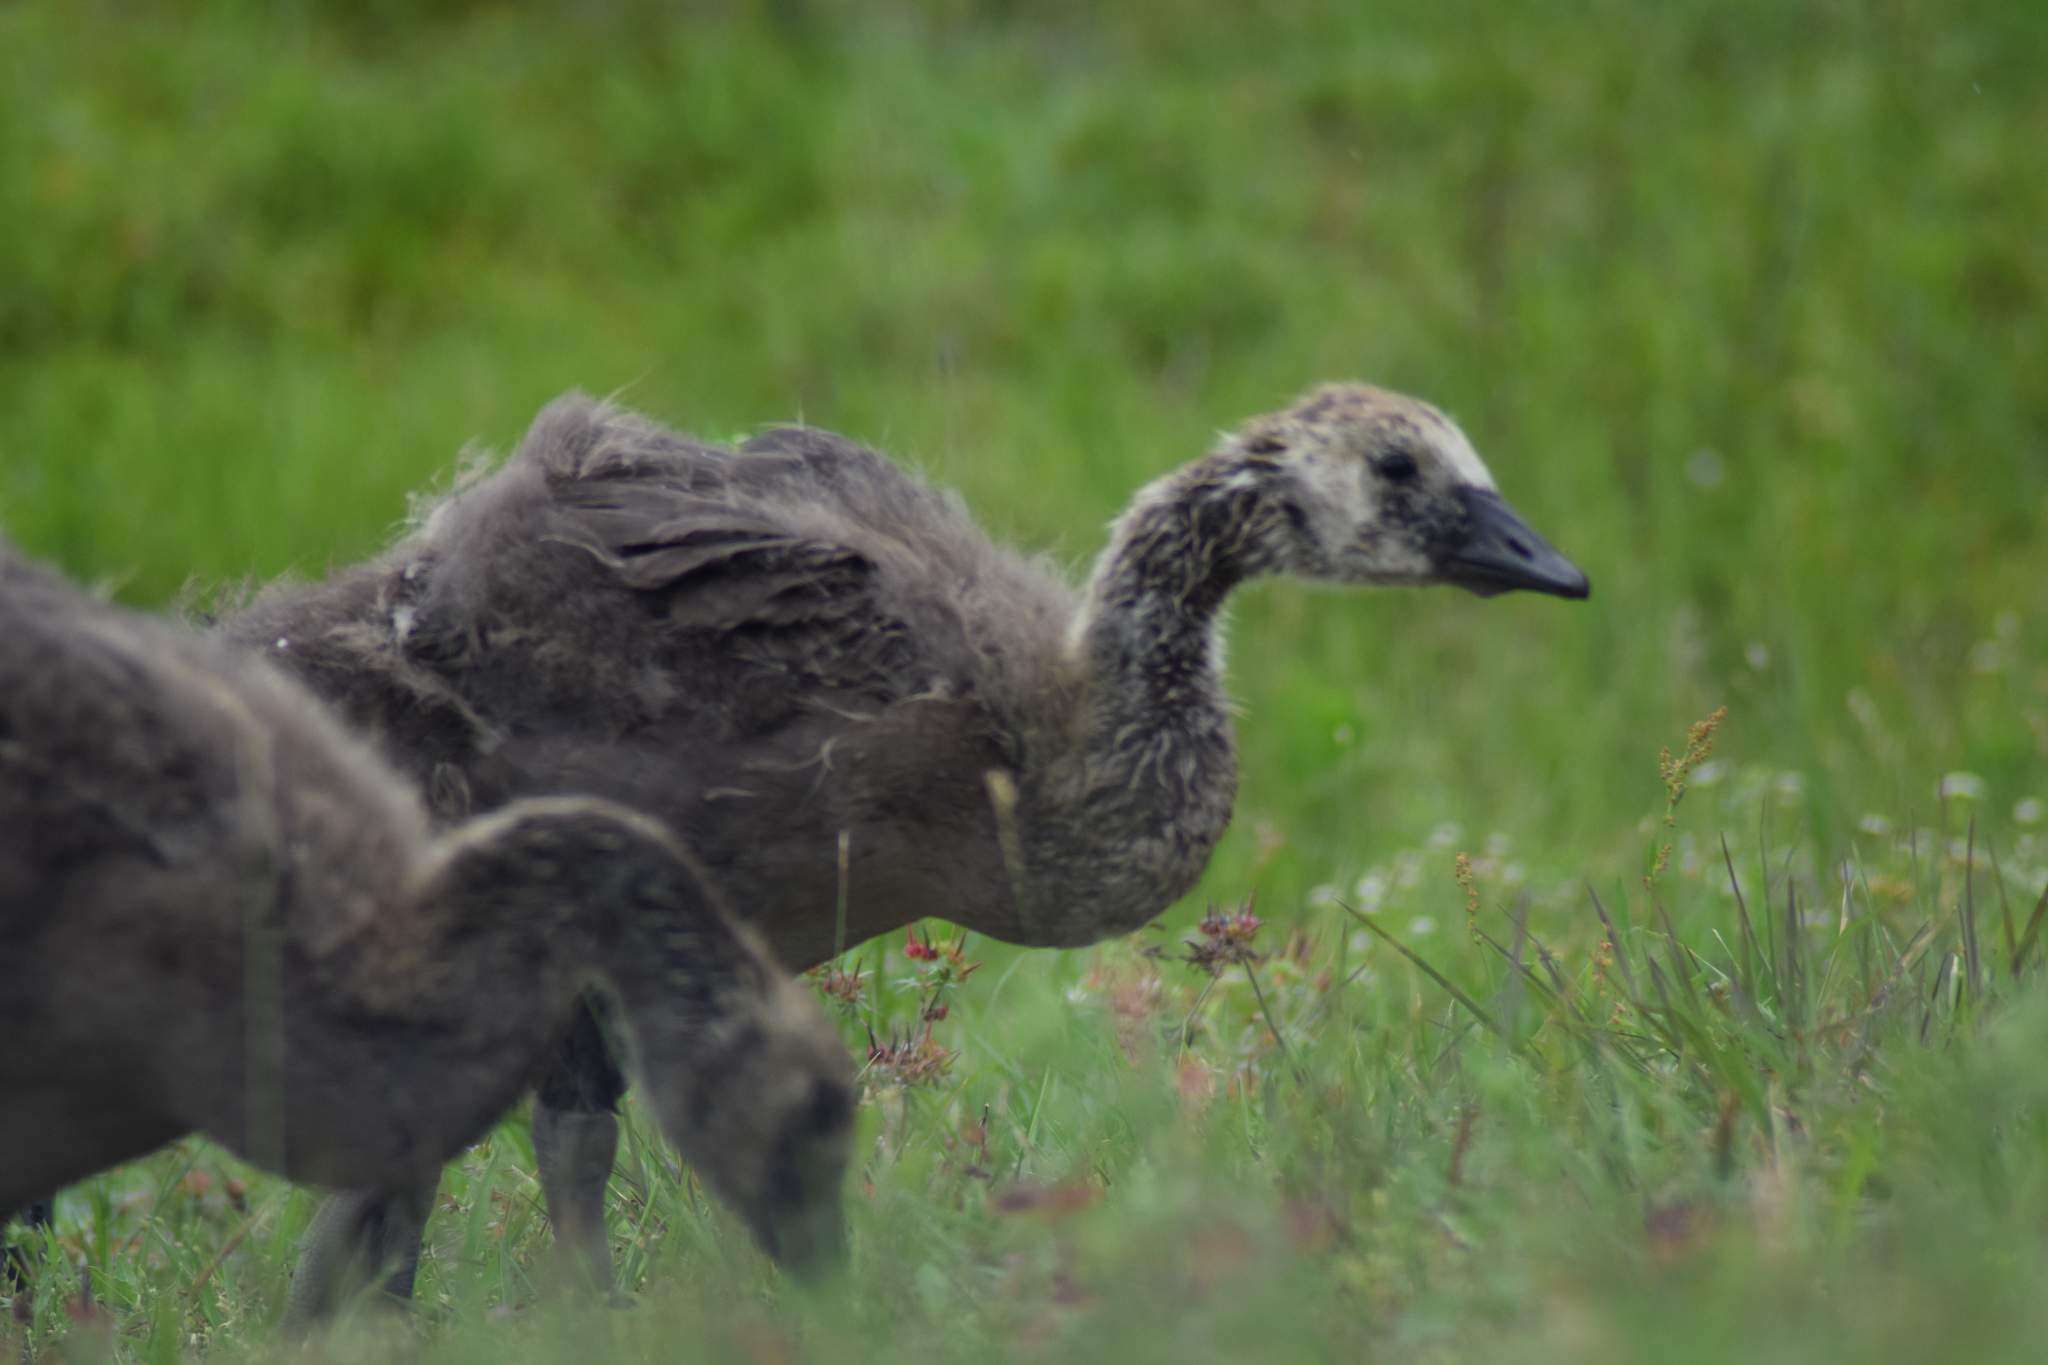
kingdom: Animalia
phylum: Chordata
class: Aves
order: Anseriformes
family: Anatidae
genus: Branta
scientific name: Branta canadensis
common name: Canada goose
